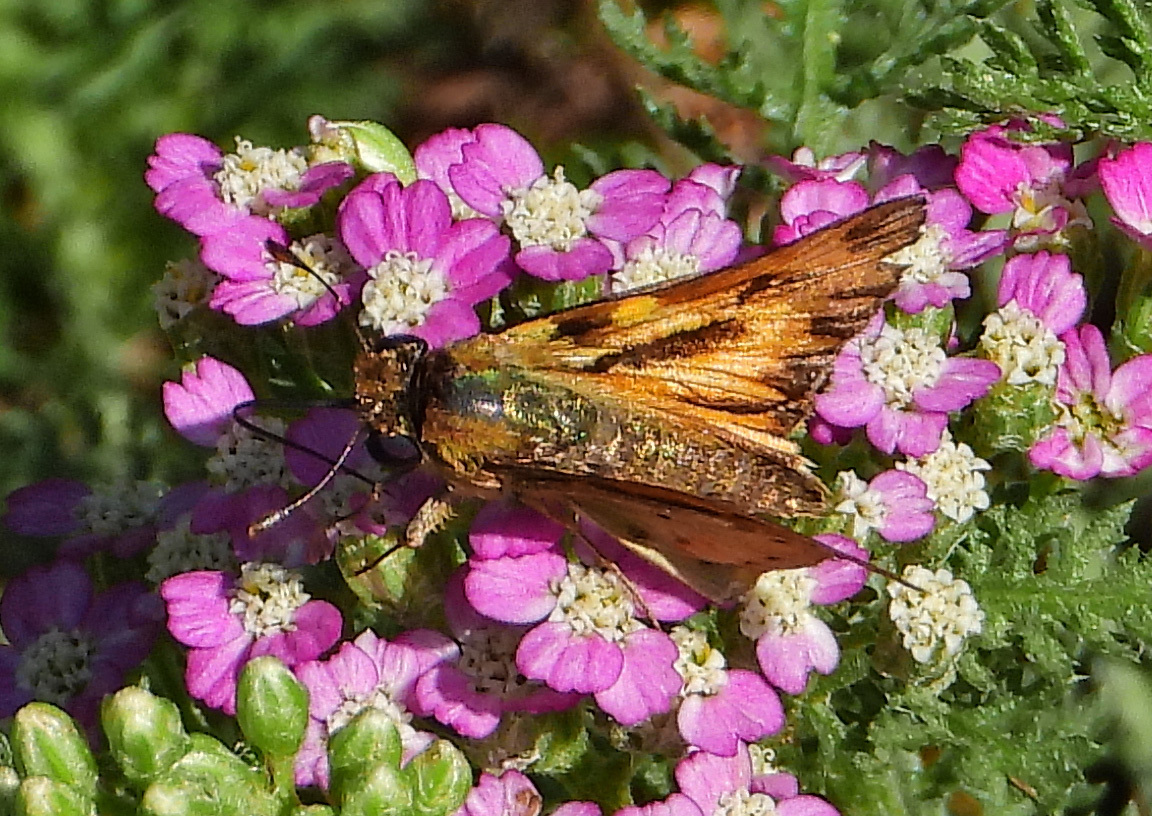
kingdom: Animalia
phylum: Arthropoda
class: Insecta
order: Lepidoptera
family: Hesperiidae
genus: Hylephila
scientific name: Hylephila phyleus
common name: Fiery skipper
